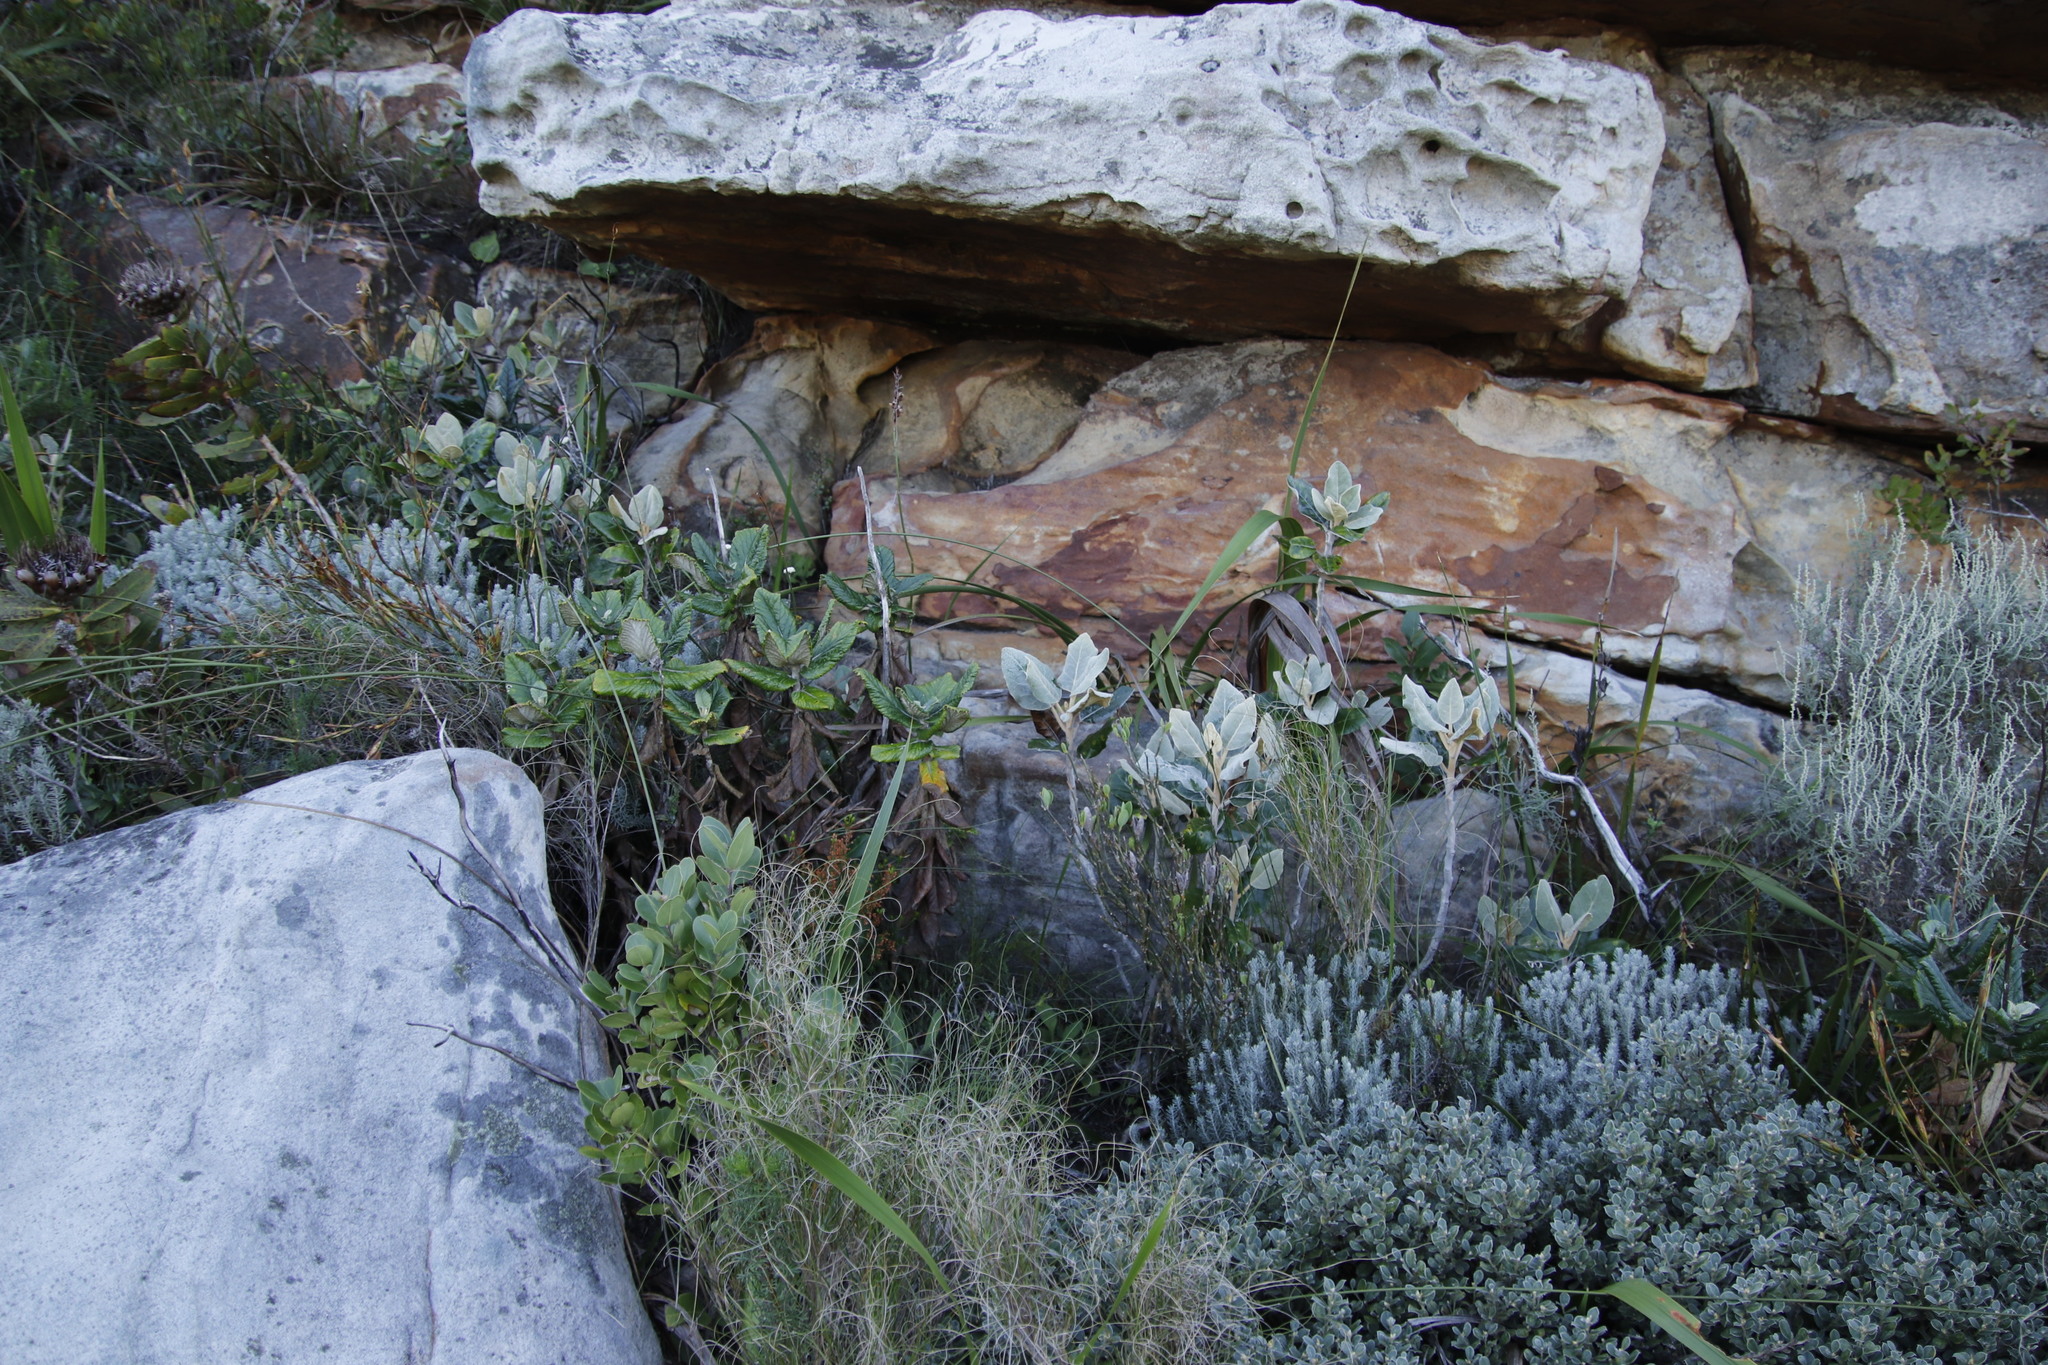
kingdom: Plantae
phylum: Tracheophyta
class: Magnoliopsida
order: Asterales
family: Asteraceae
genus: Capelio
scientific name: Capelio tabularis
